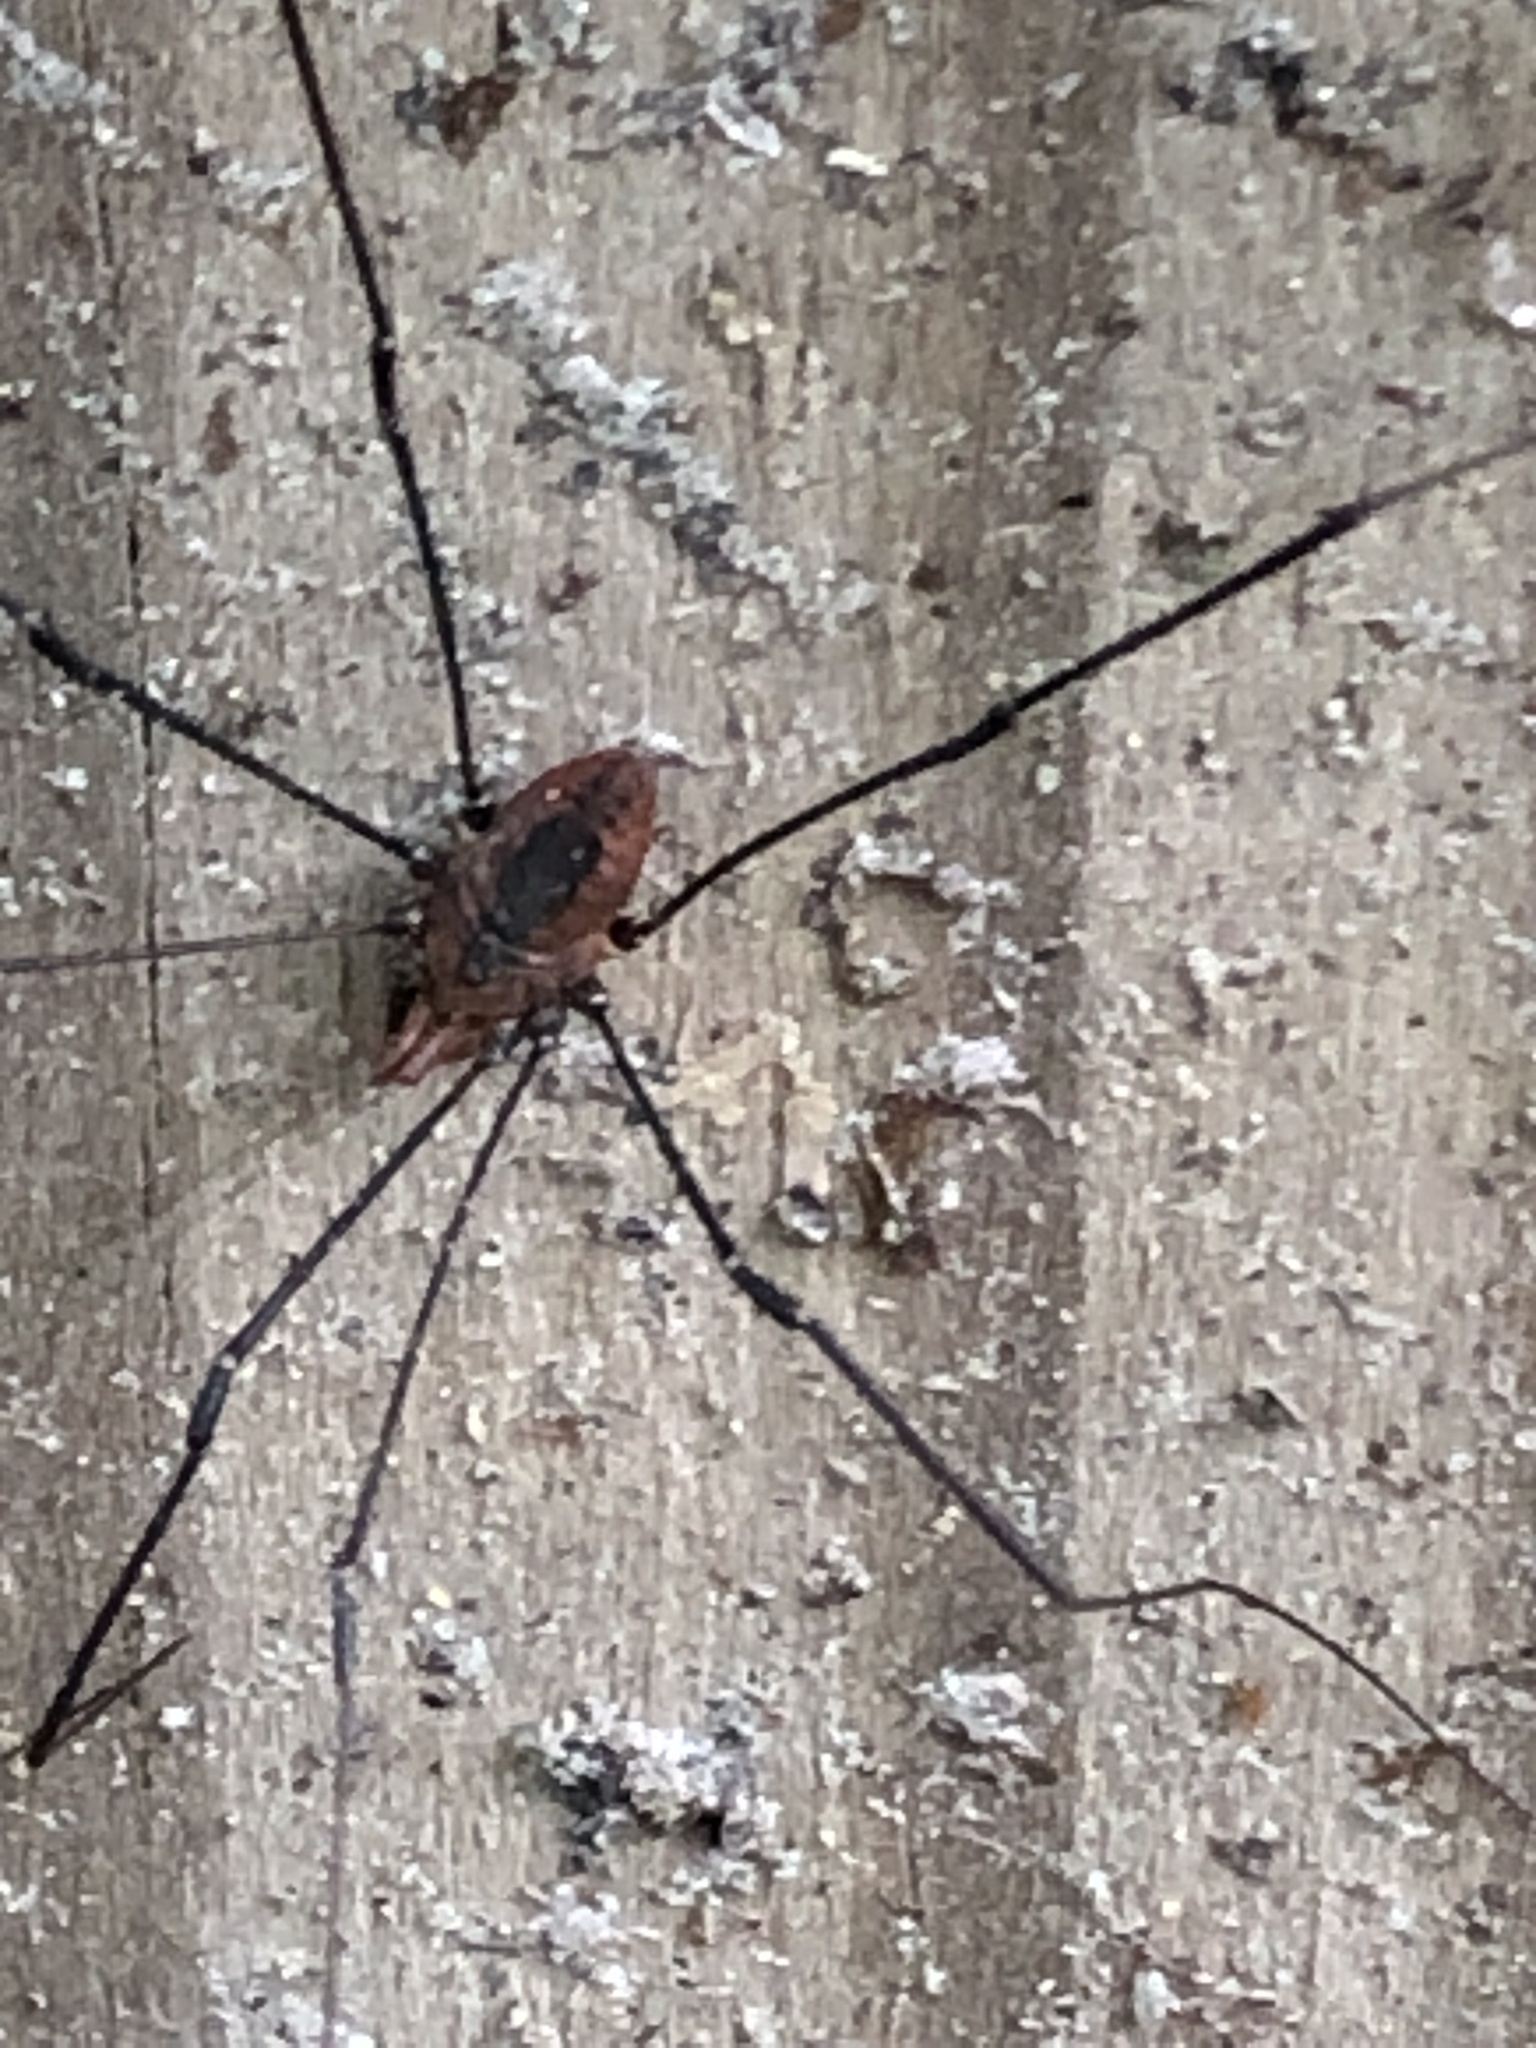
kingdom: Animalia
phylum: Arthropoda
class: Arachnida
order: Opiliones
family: Sclerosomatidae
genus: Leiobunum
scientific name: Leiobunum vittatum
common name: Eastern harvestman
